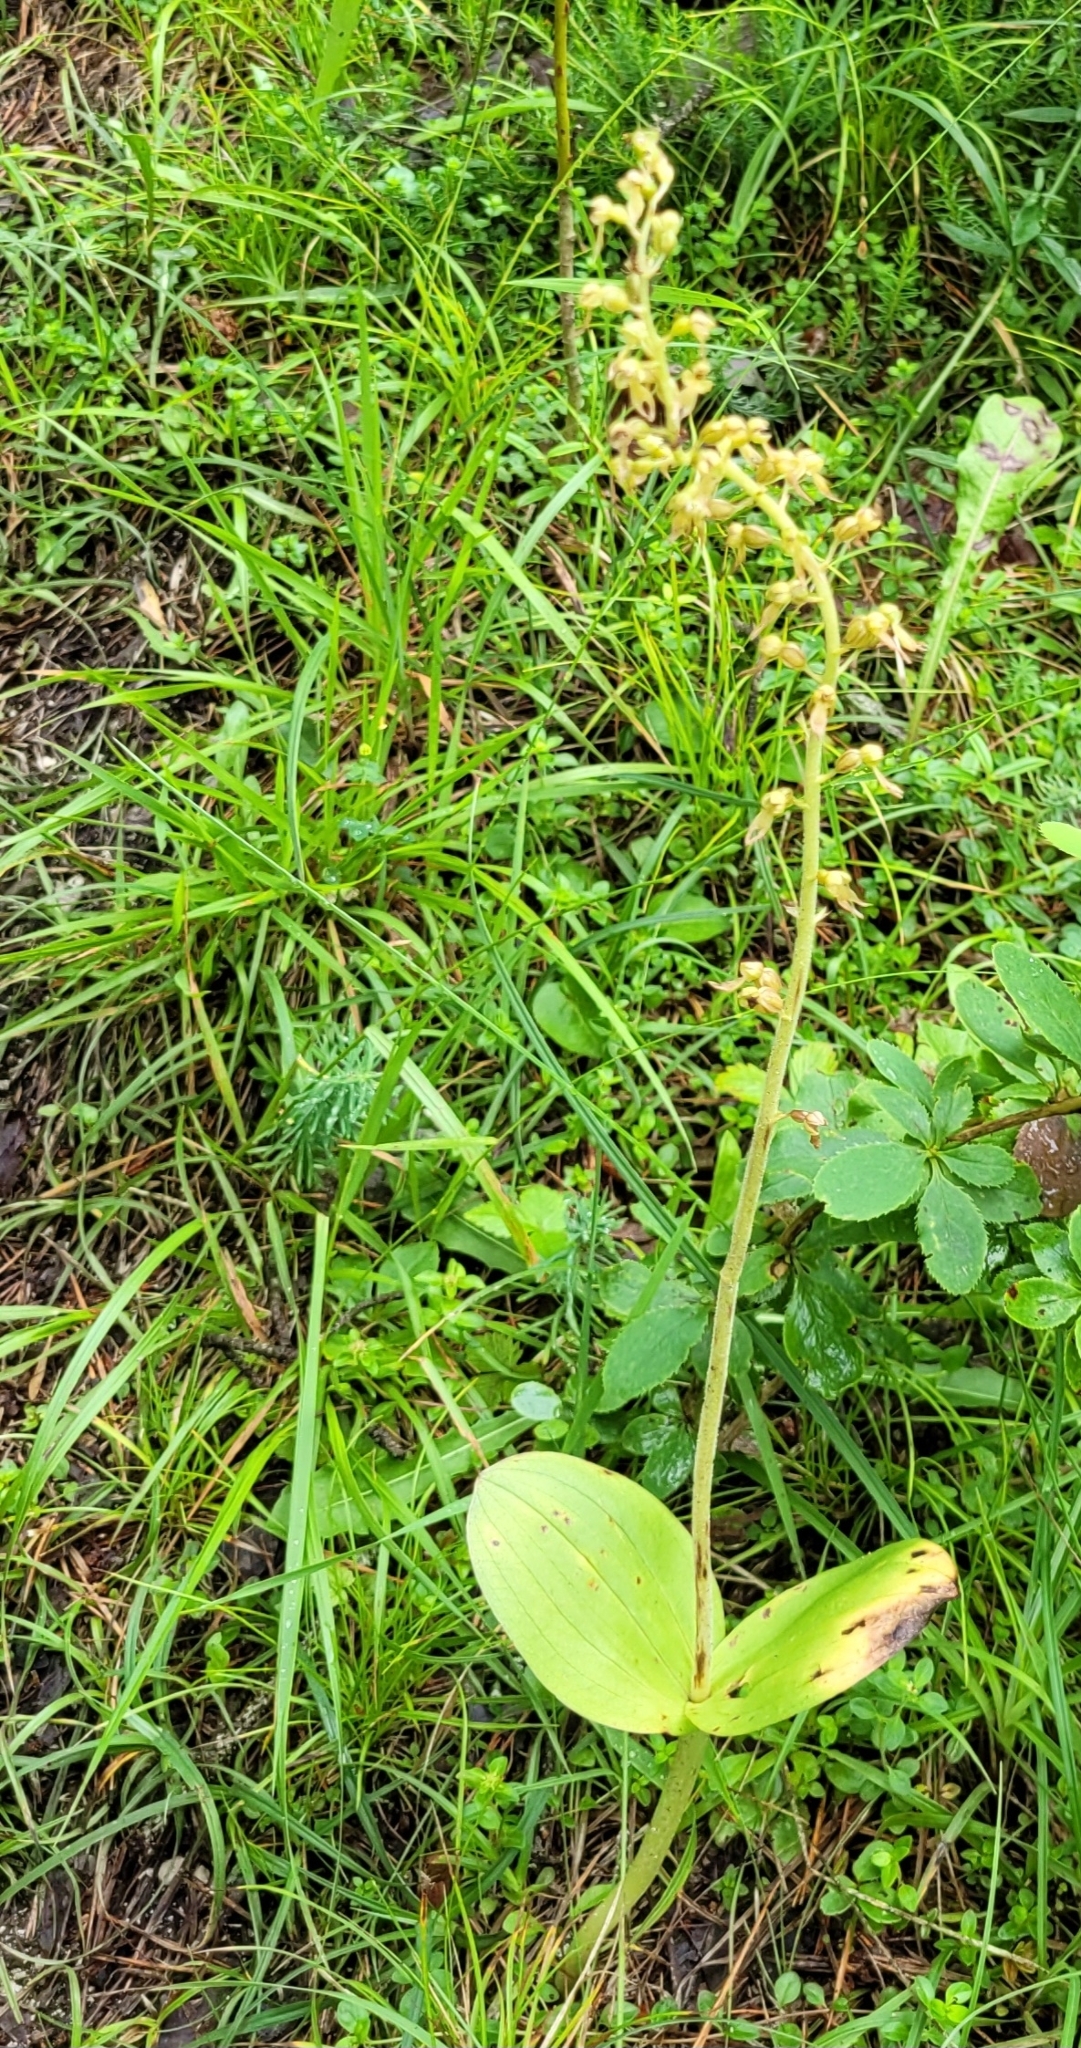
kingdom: Plantae
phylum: Tracheophyta
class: Liliopsida
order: Asparagales
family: Orchidaceae
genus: Neottia
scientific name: Neottia ovata
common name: Common twayblade
